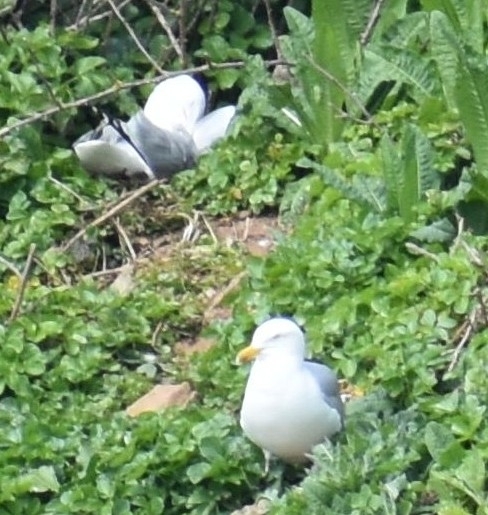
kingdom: Animalia
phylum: Chordata
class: Aves
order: Charadriiformes
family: Laridae
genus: Larus
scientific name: Larus argentatus
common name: Herring gull
